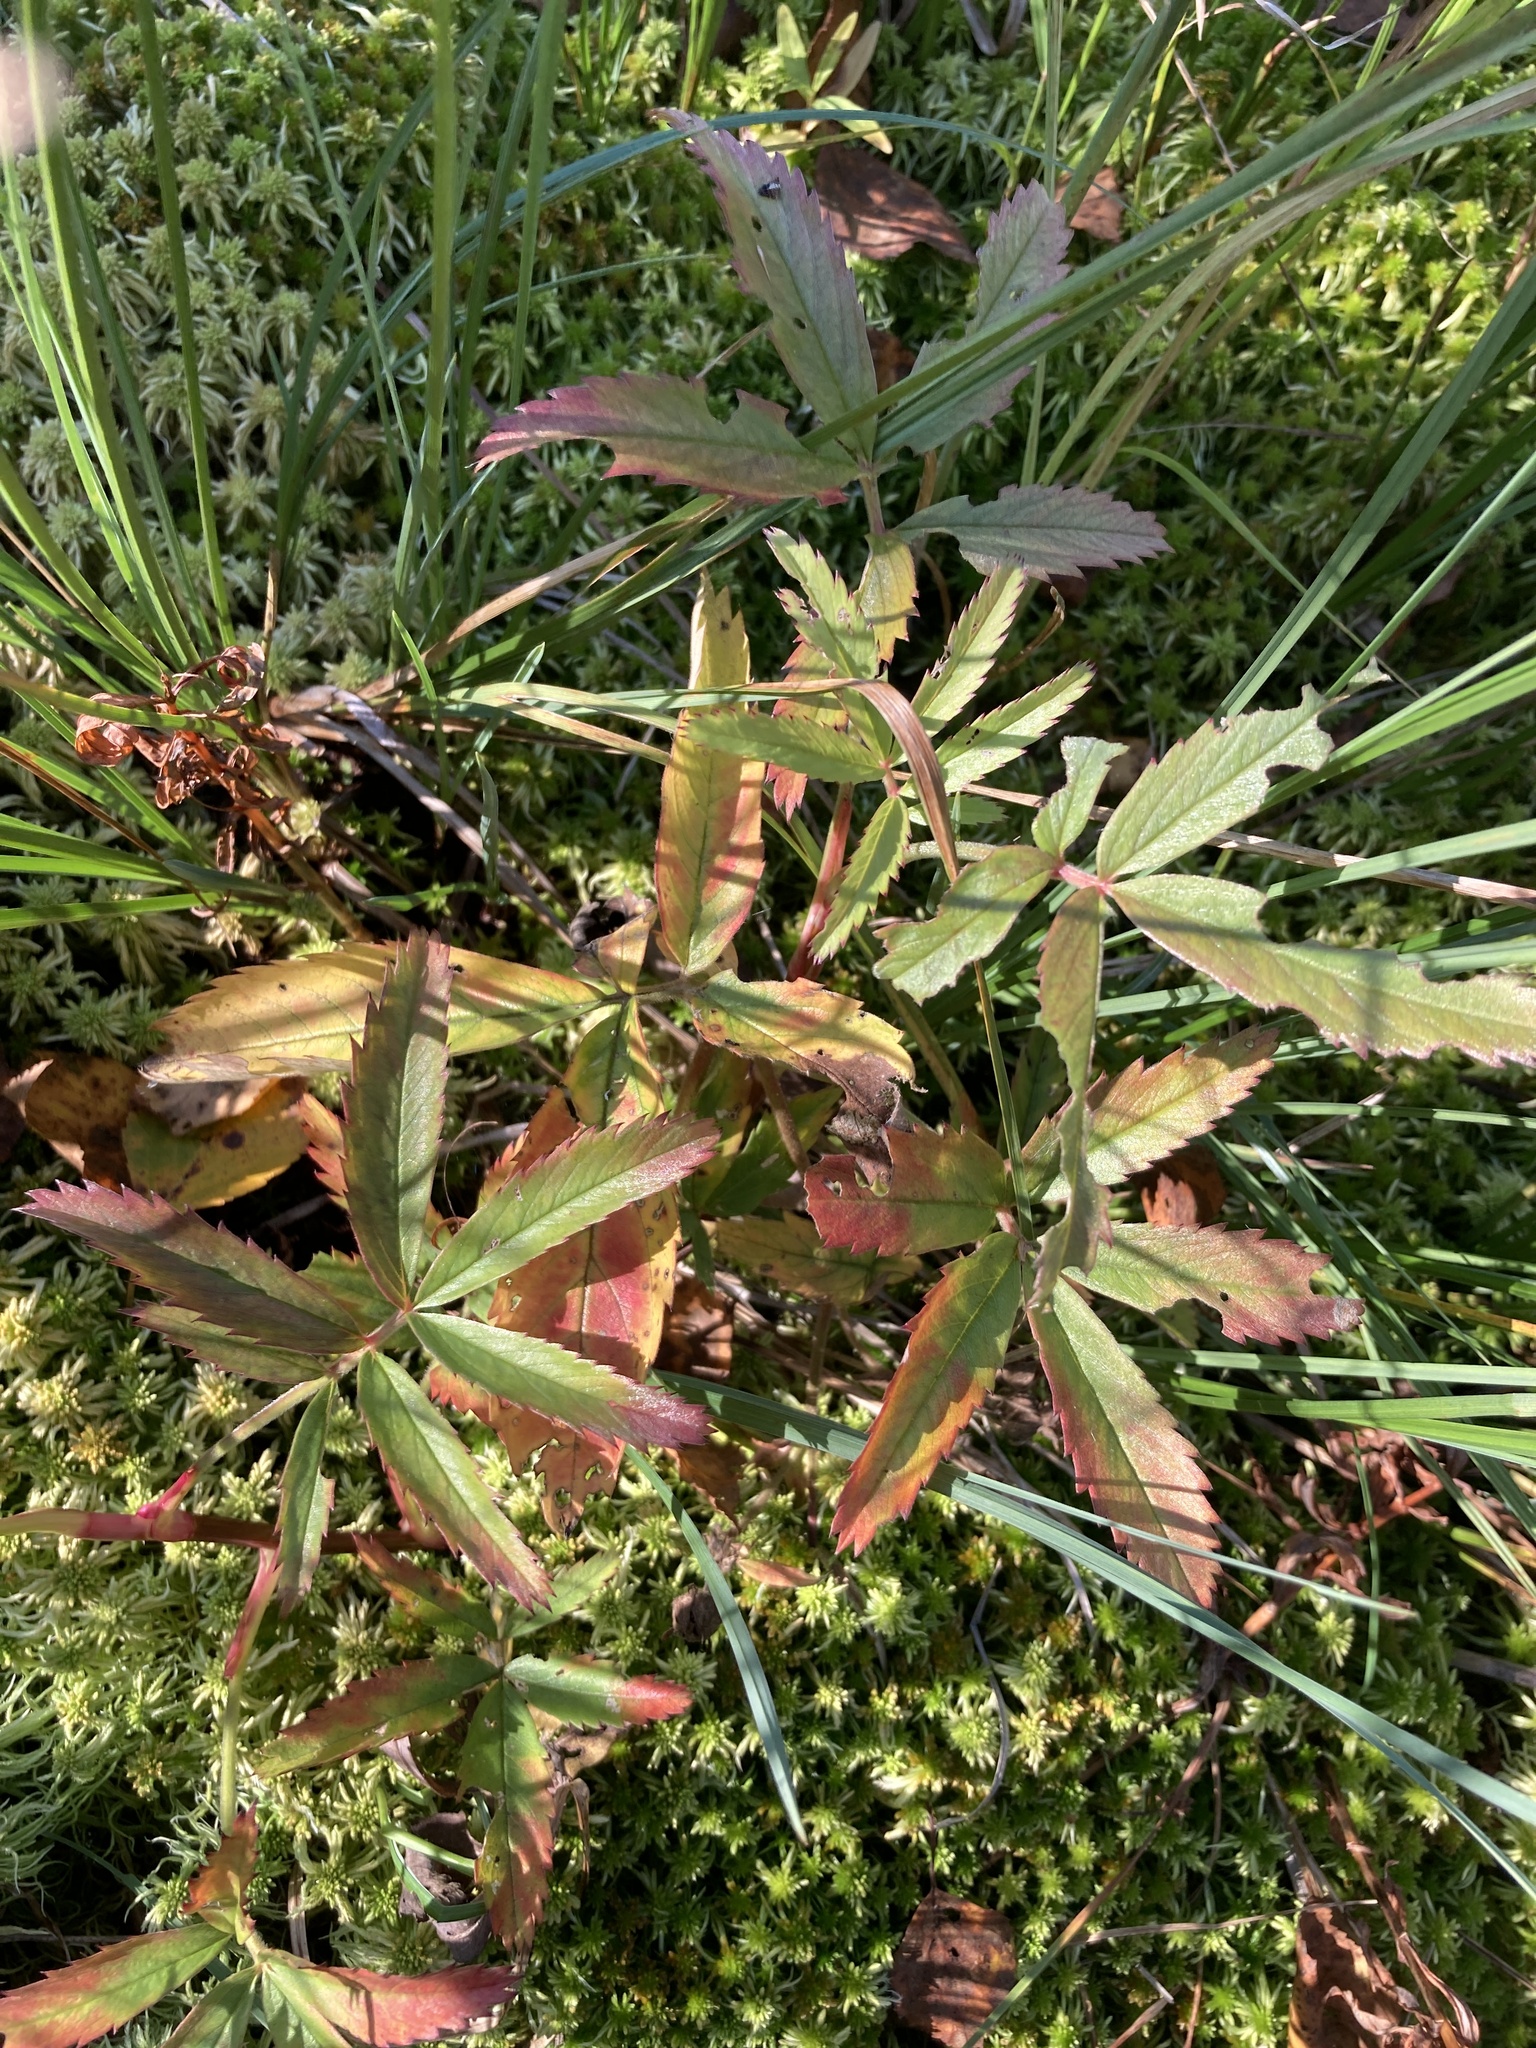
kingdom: Plantae
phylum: Tracheophyta
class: Magnoliopsida
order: Rosales
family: Rosaceae
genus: Comarum
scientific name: Comarum palustre
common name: Marsh cinquefoil
